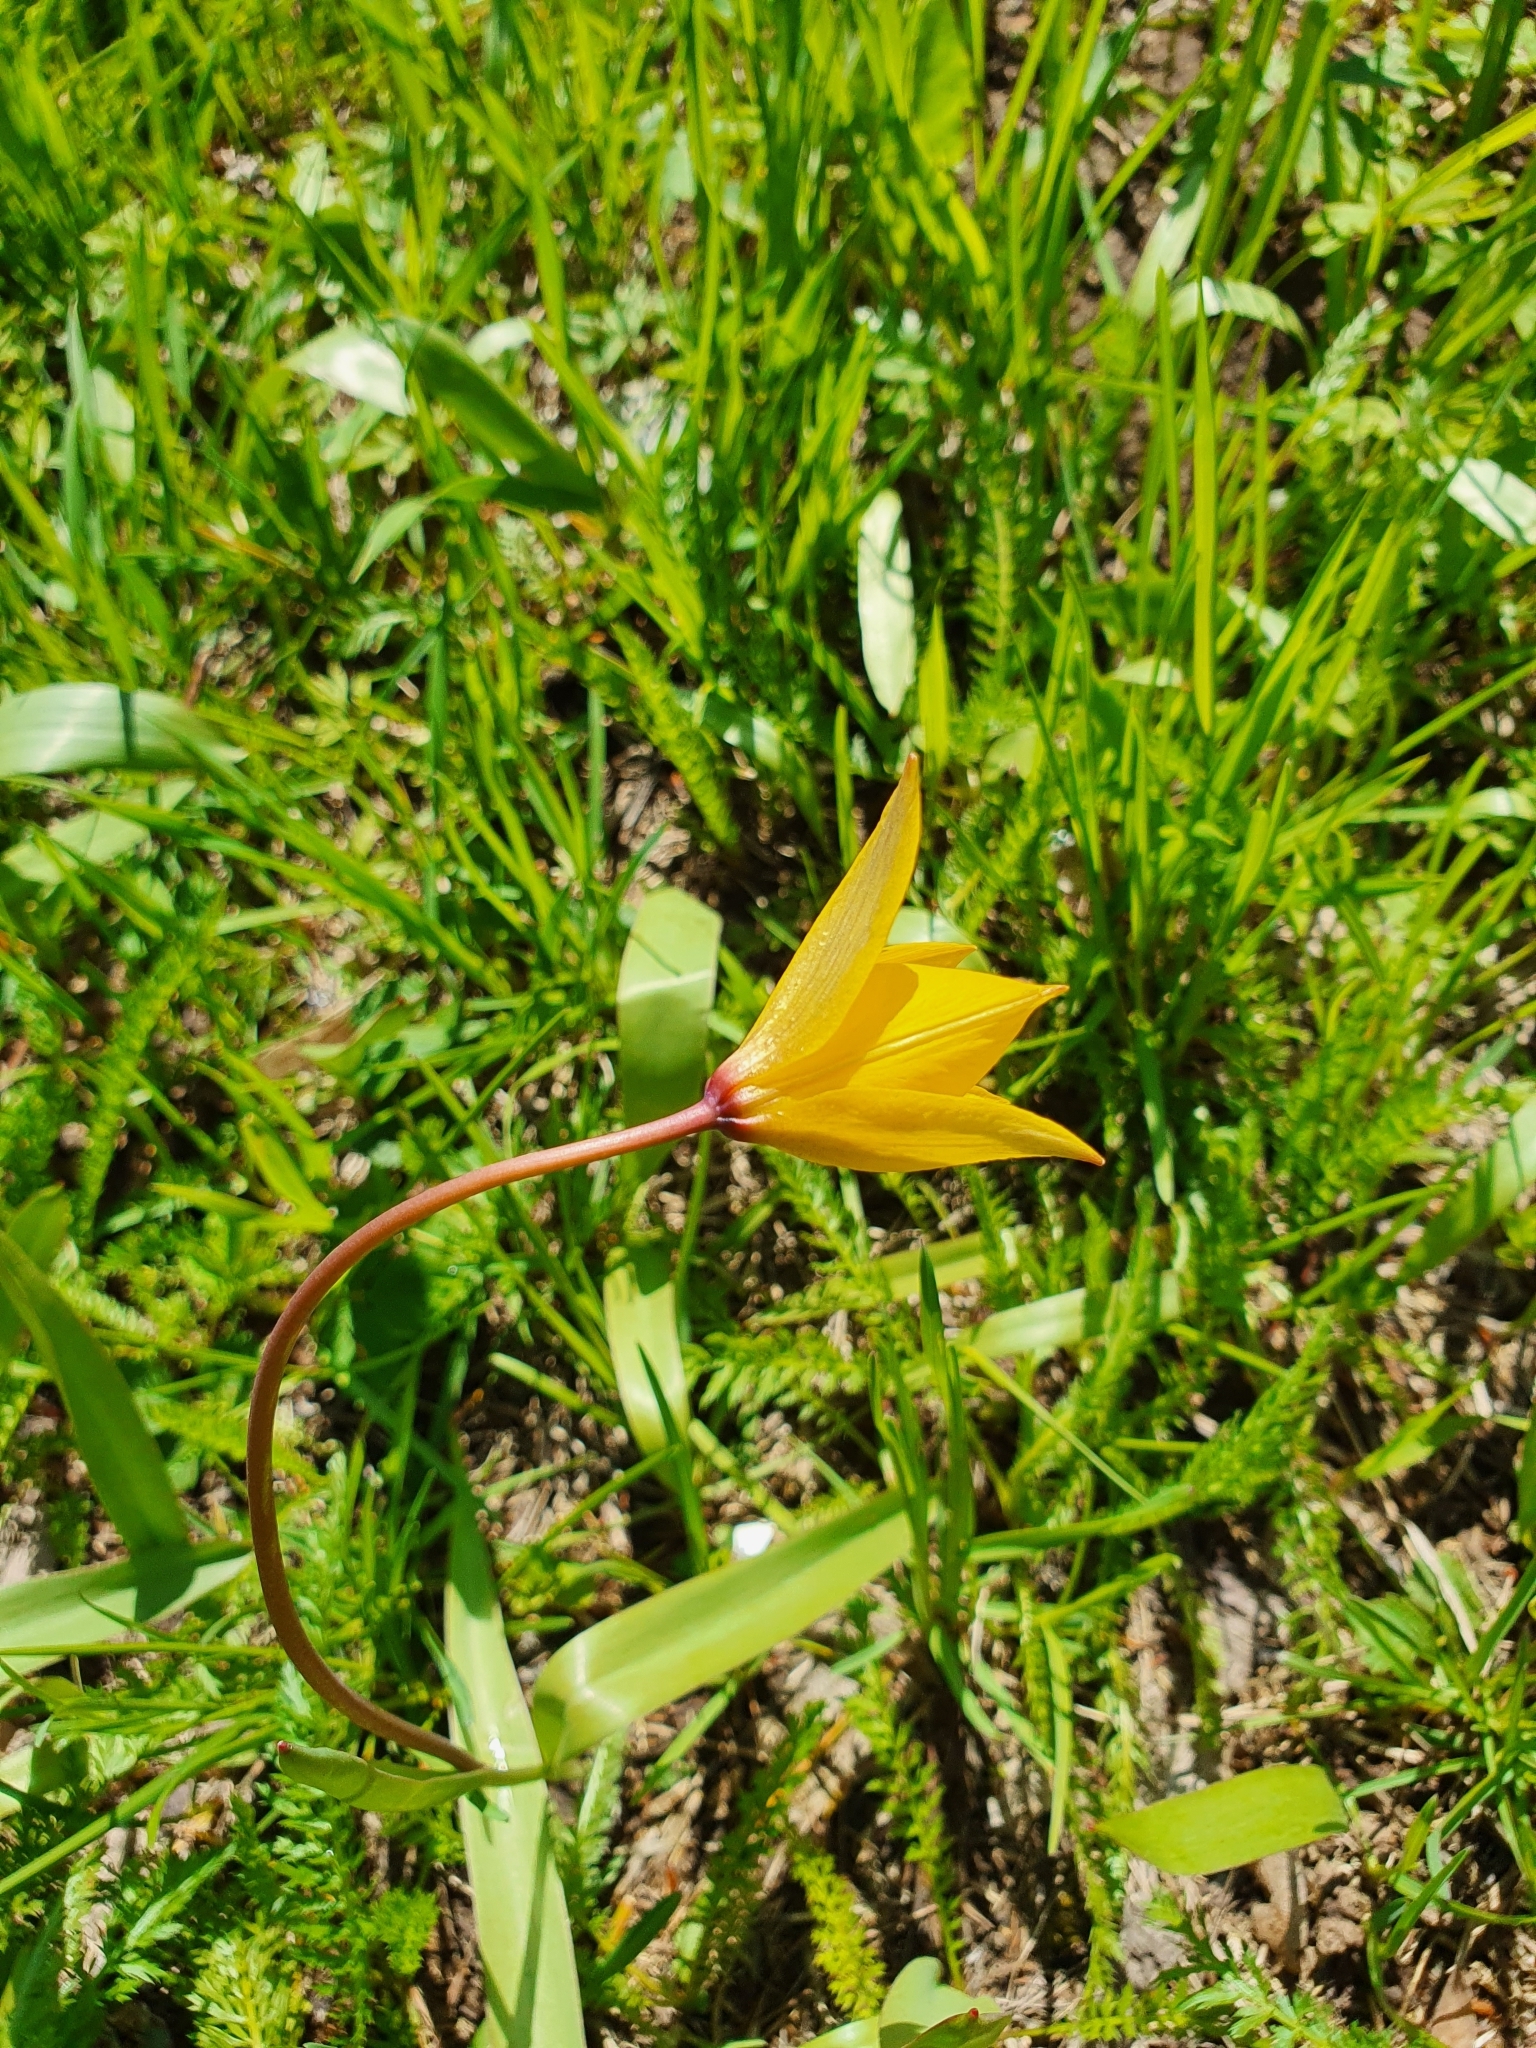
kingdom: Plantae
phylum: Tracheophyta
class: Liliopsida
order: Liliales
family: Liliaceae
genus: Tulipa
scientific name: Tulipa sylvestris
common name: Wild tulip
